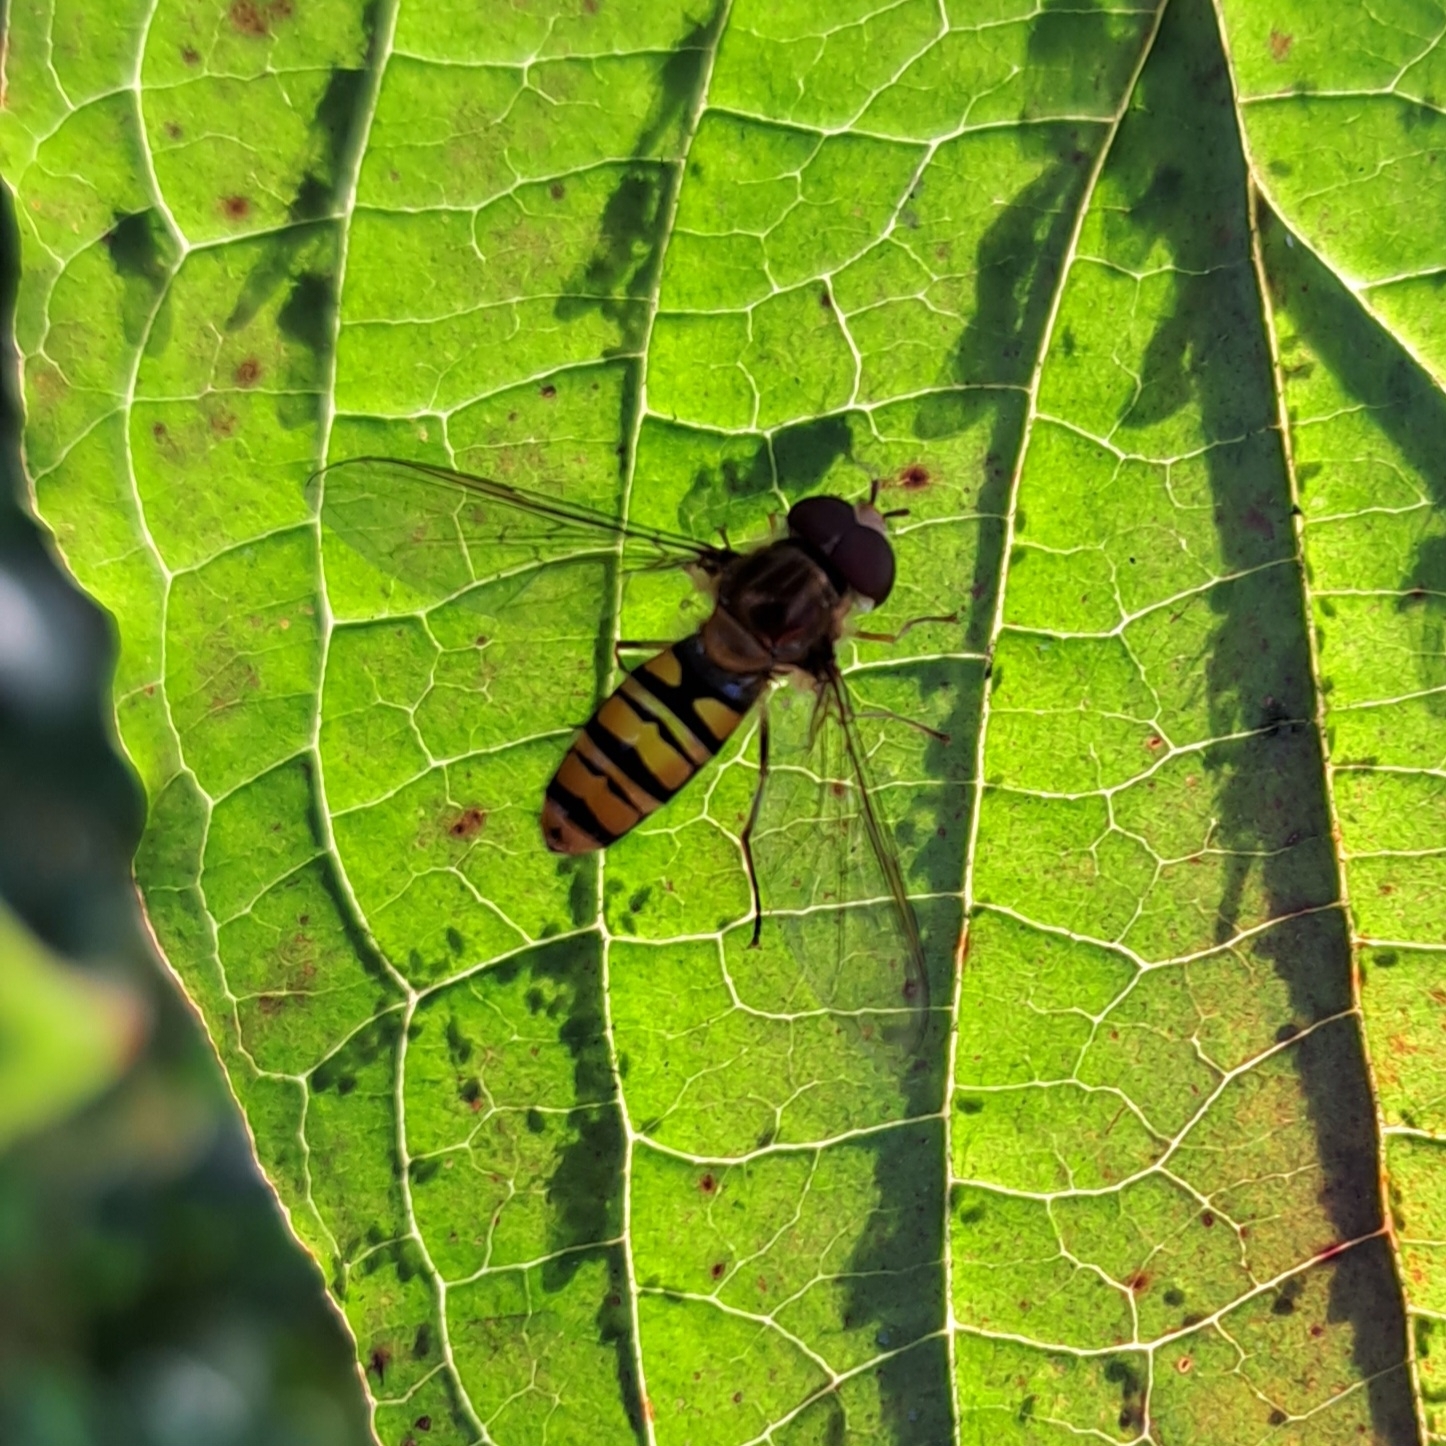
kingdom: Animalia
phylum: Arthropoda
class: Insecta
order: Diptera
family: Syrphidae
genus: Episyrphus
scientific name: Episyrphus balteatus
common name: Marmalade hoverfly
